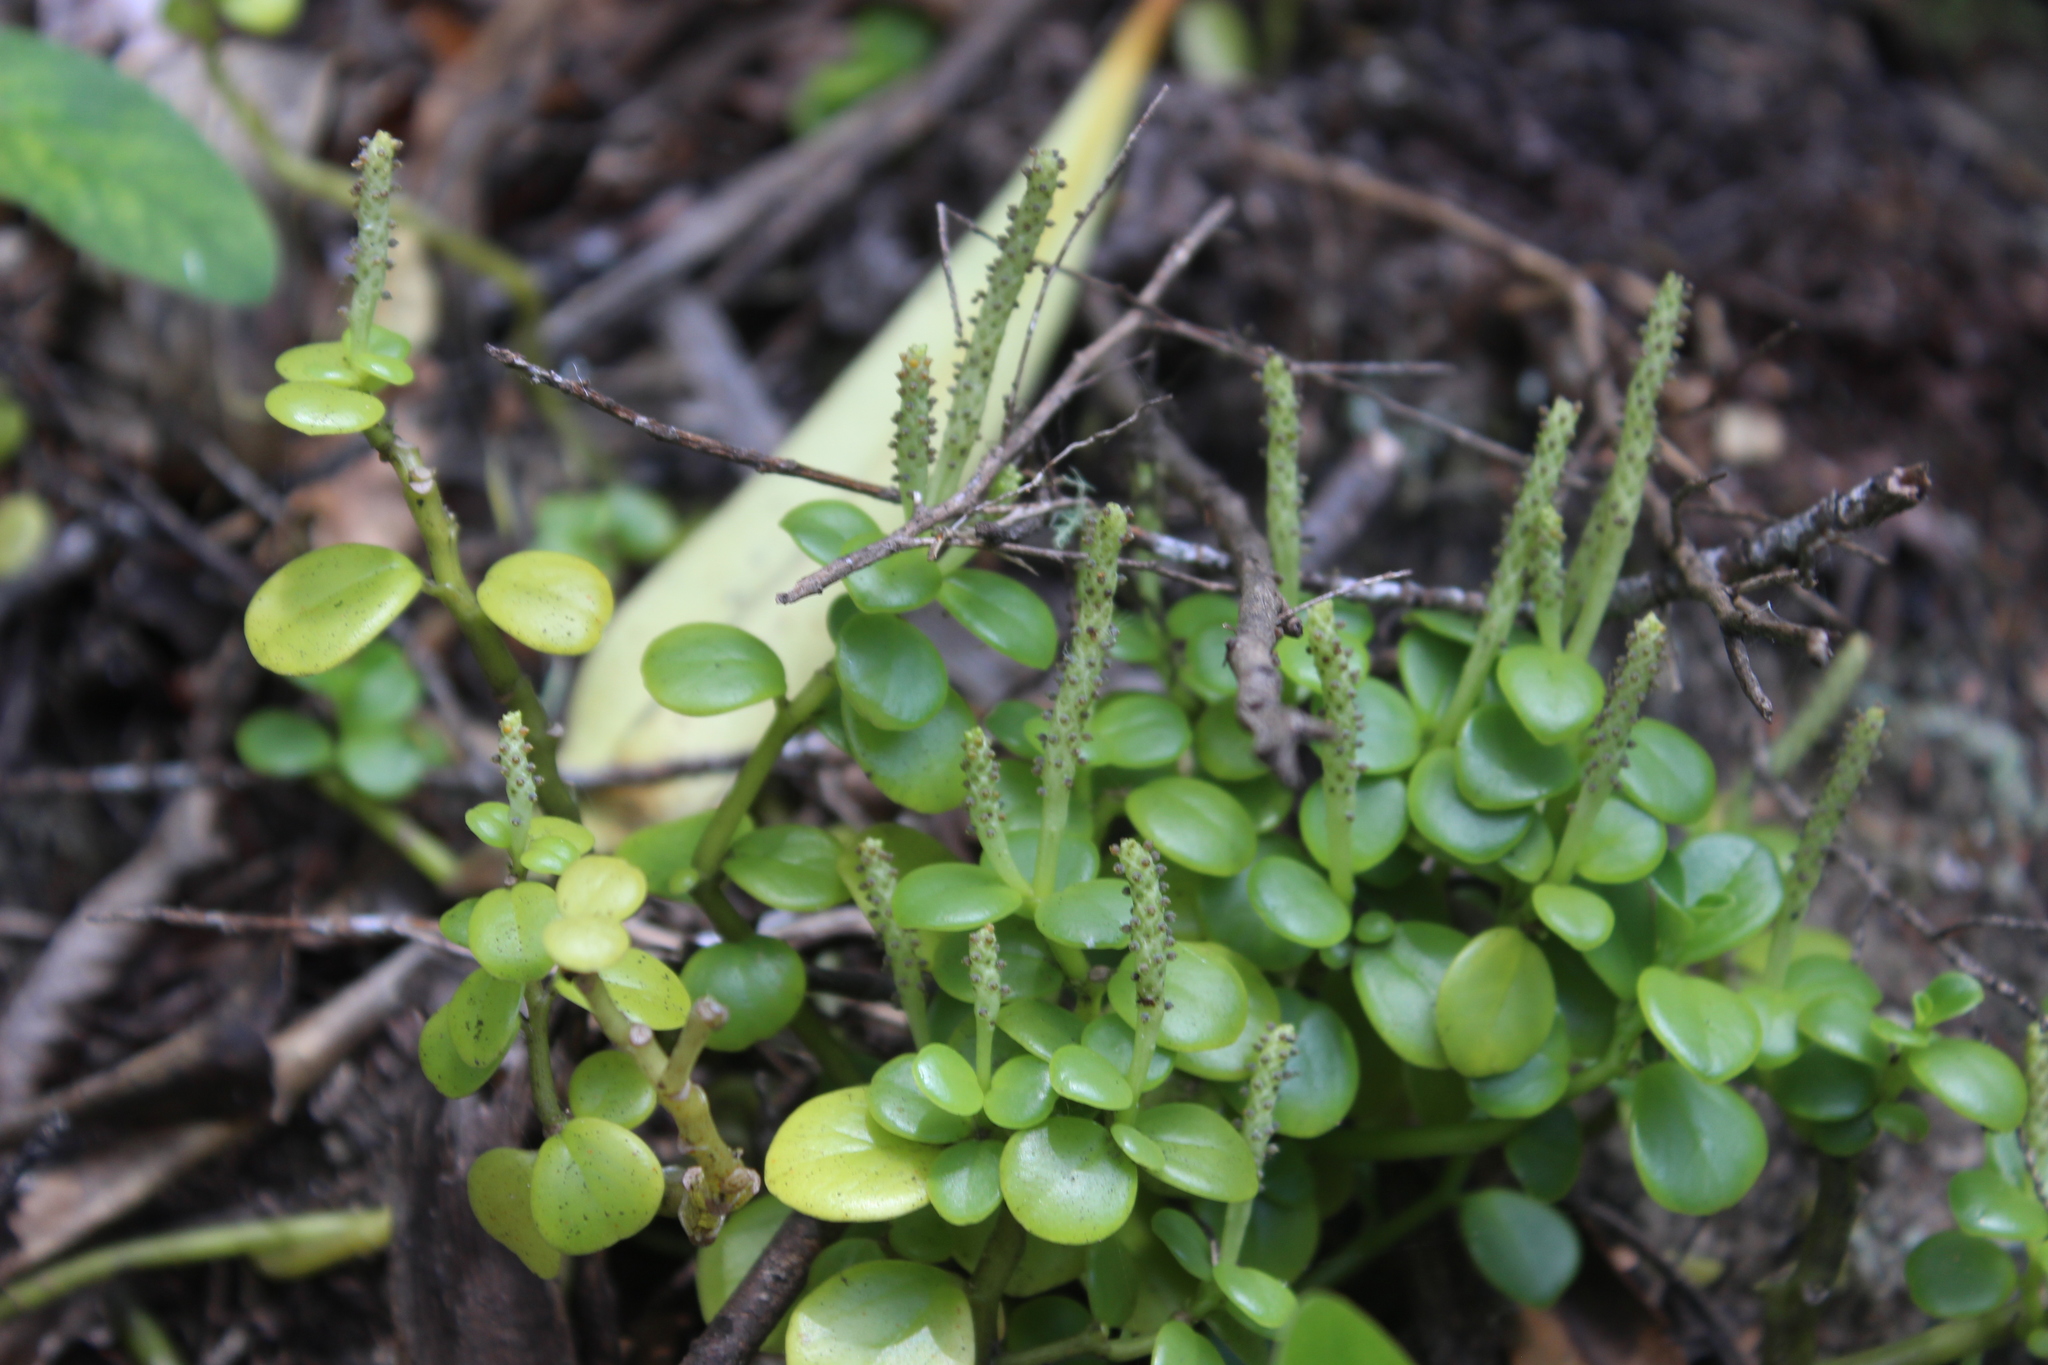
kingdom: Plantae
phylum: Tracheophyta
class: Magnoliopsida
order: Piperales
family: Piperaceae
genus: Peperomia
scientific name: Peperomia urvilleana
